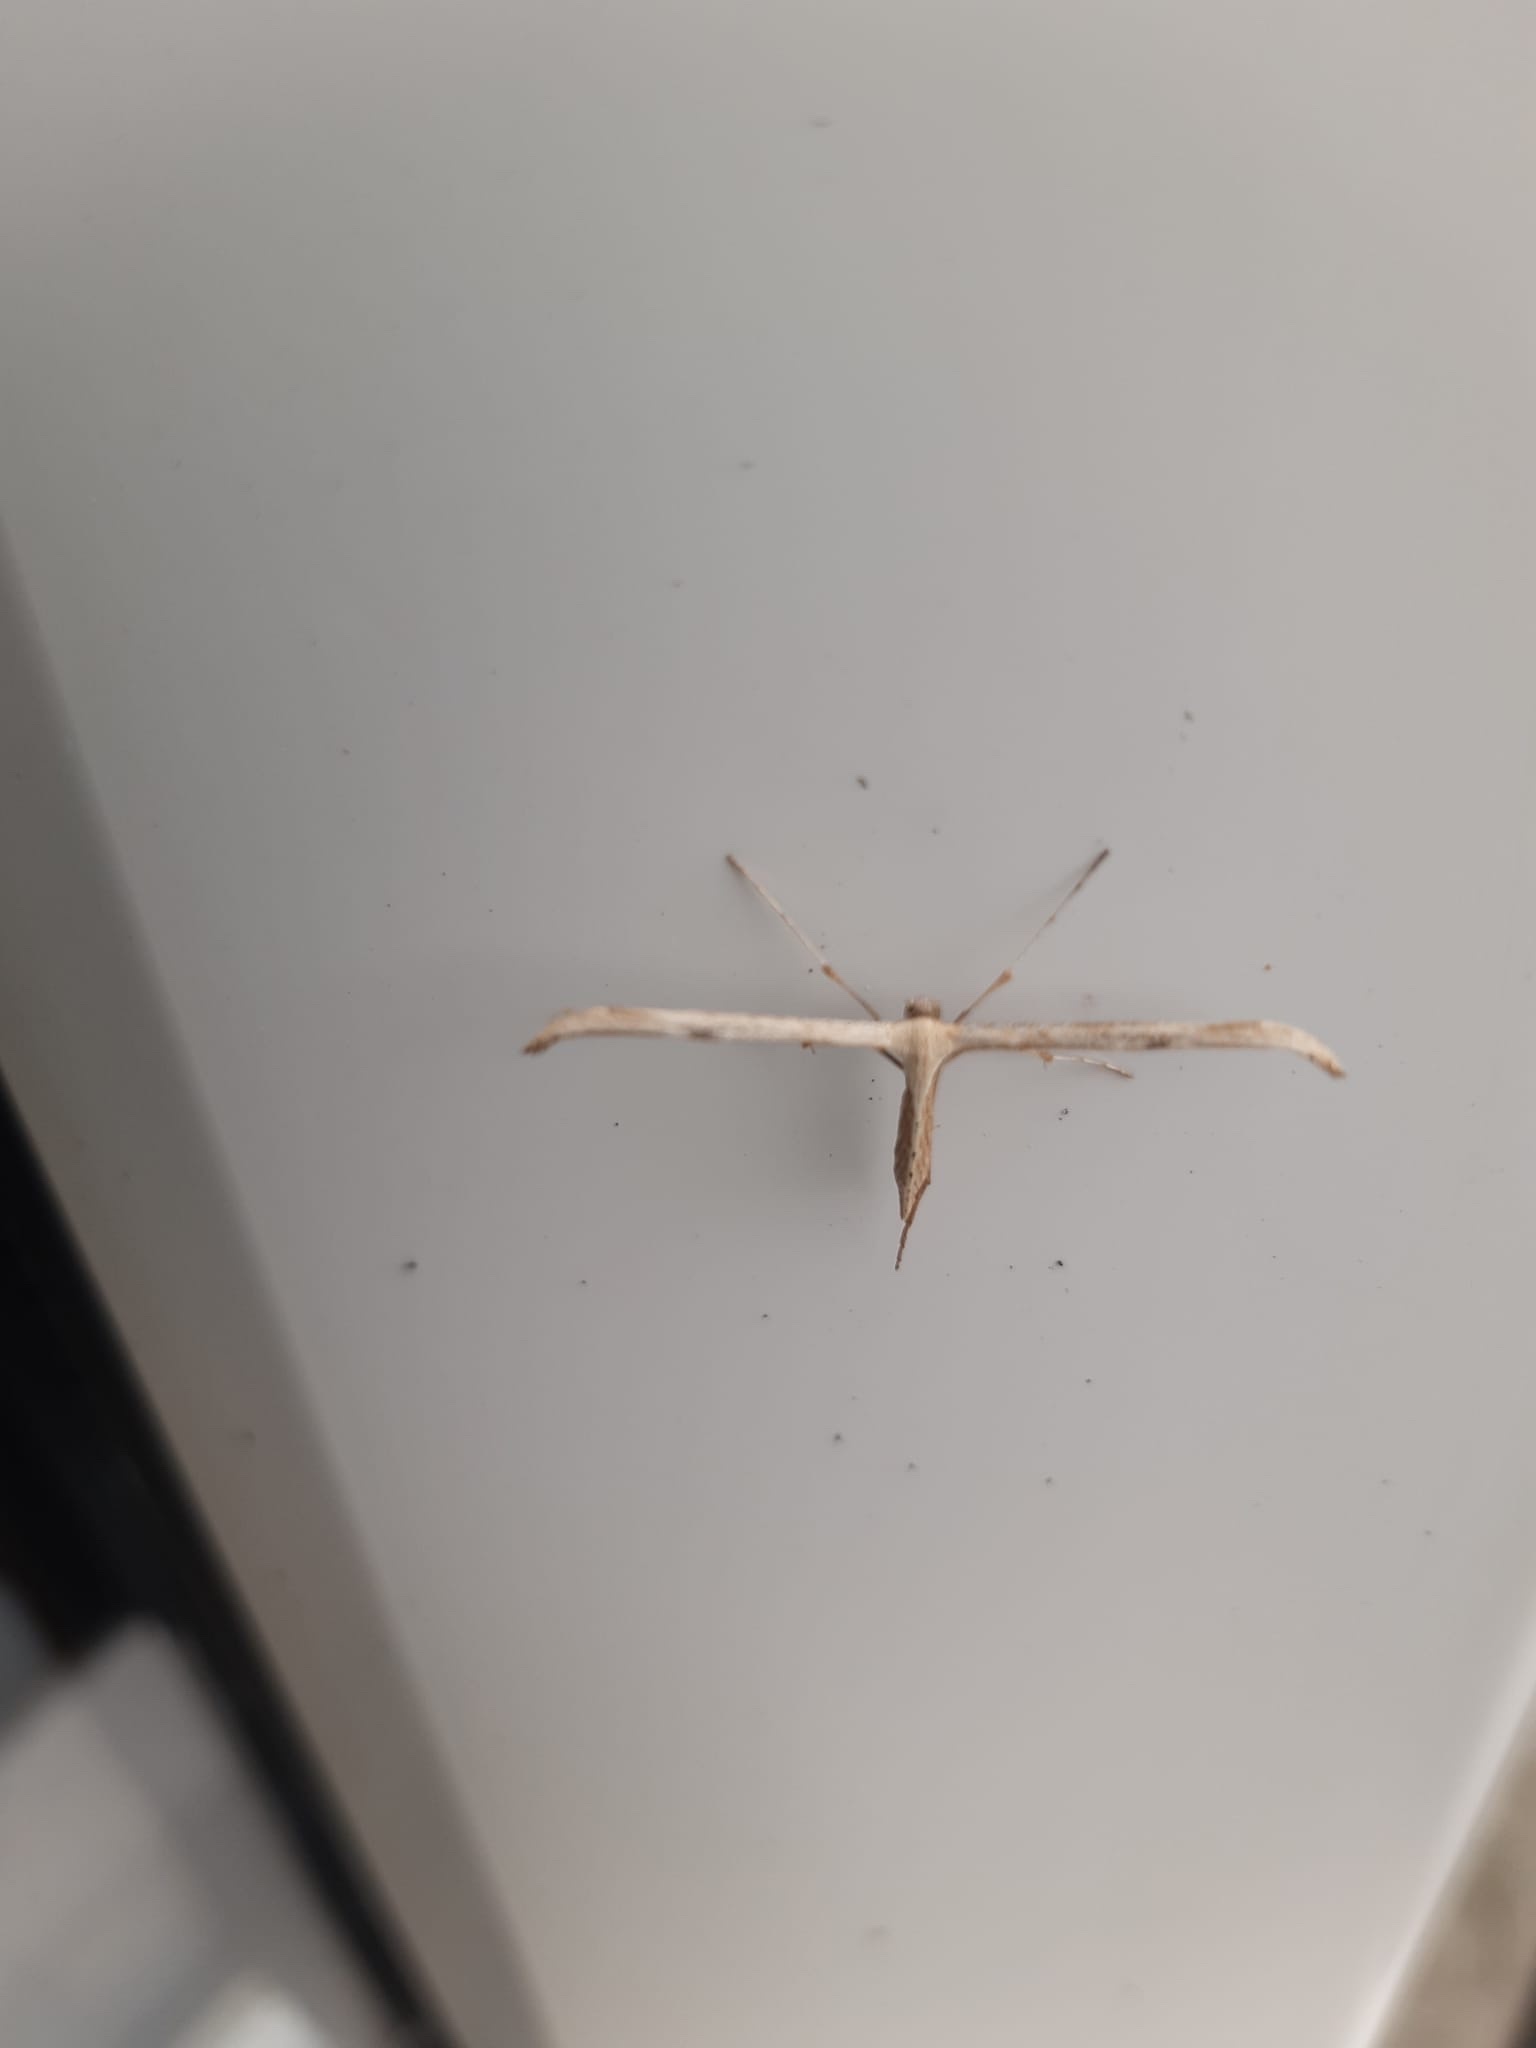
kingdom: Animalia
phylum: Arthropoda
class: Insecta
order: Lepidoptera
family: Pterophoridae
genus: Emmelina
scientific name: Emmelina monodactyla
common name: Common plume
